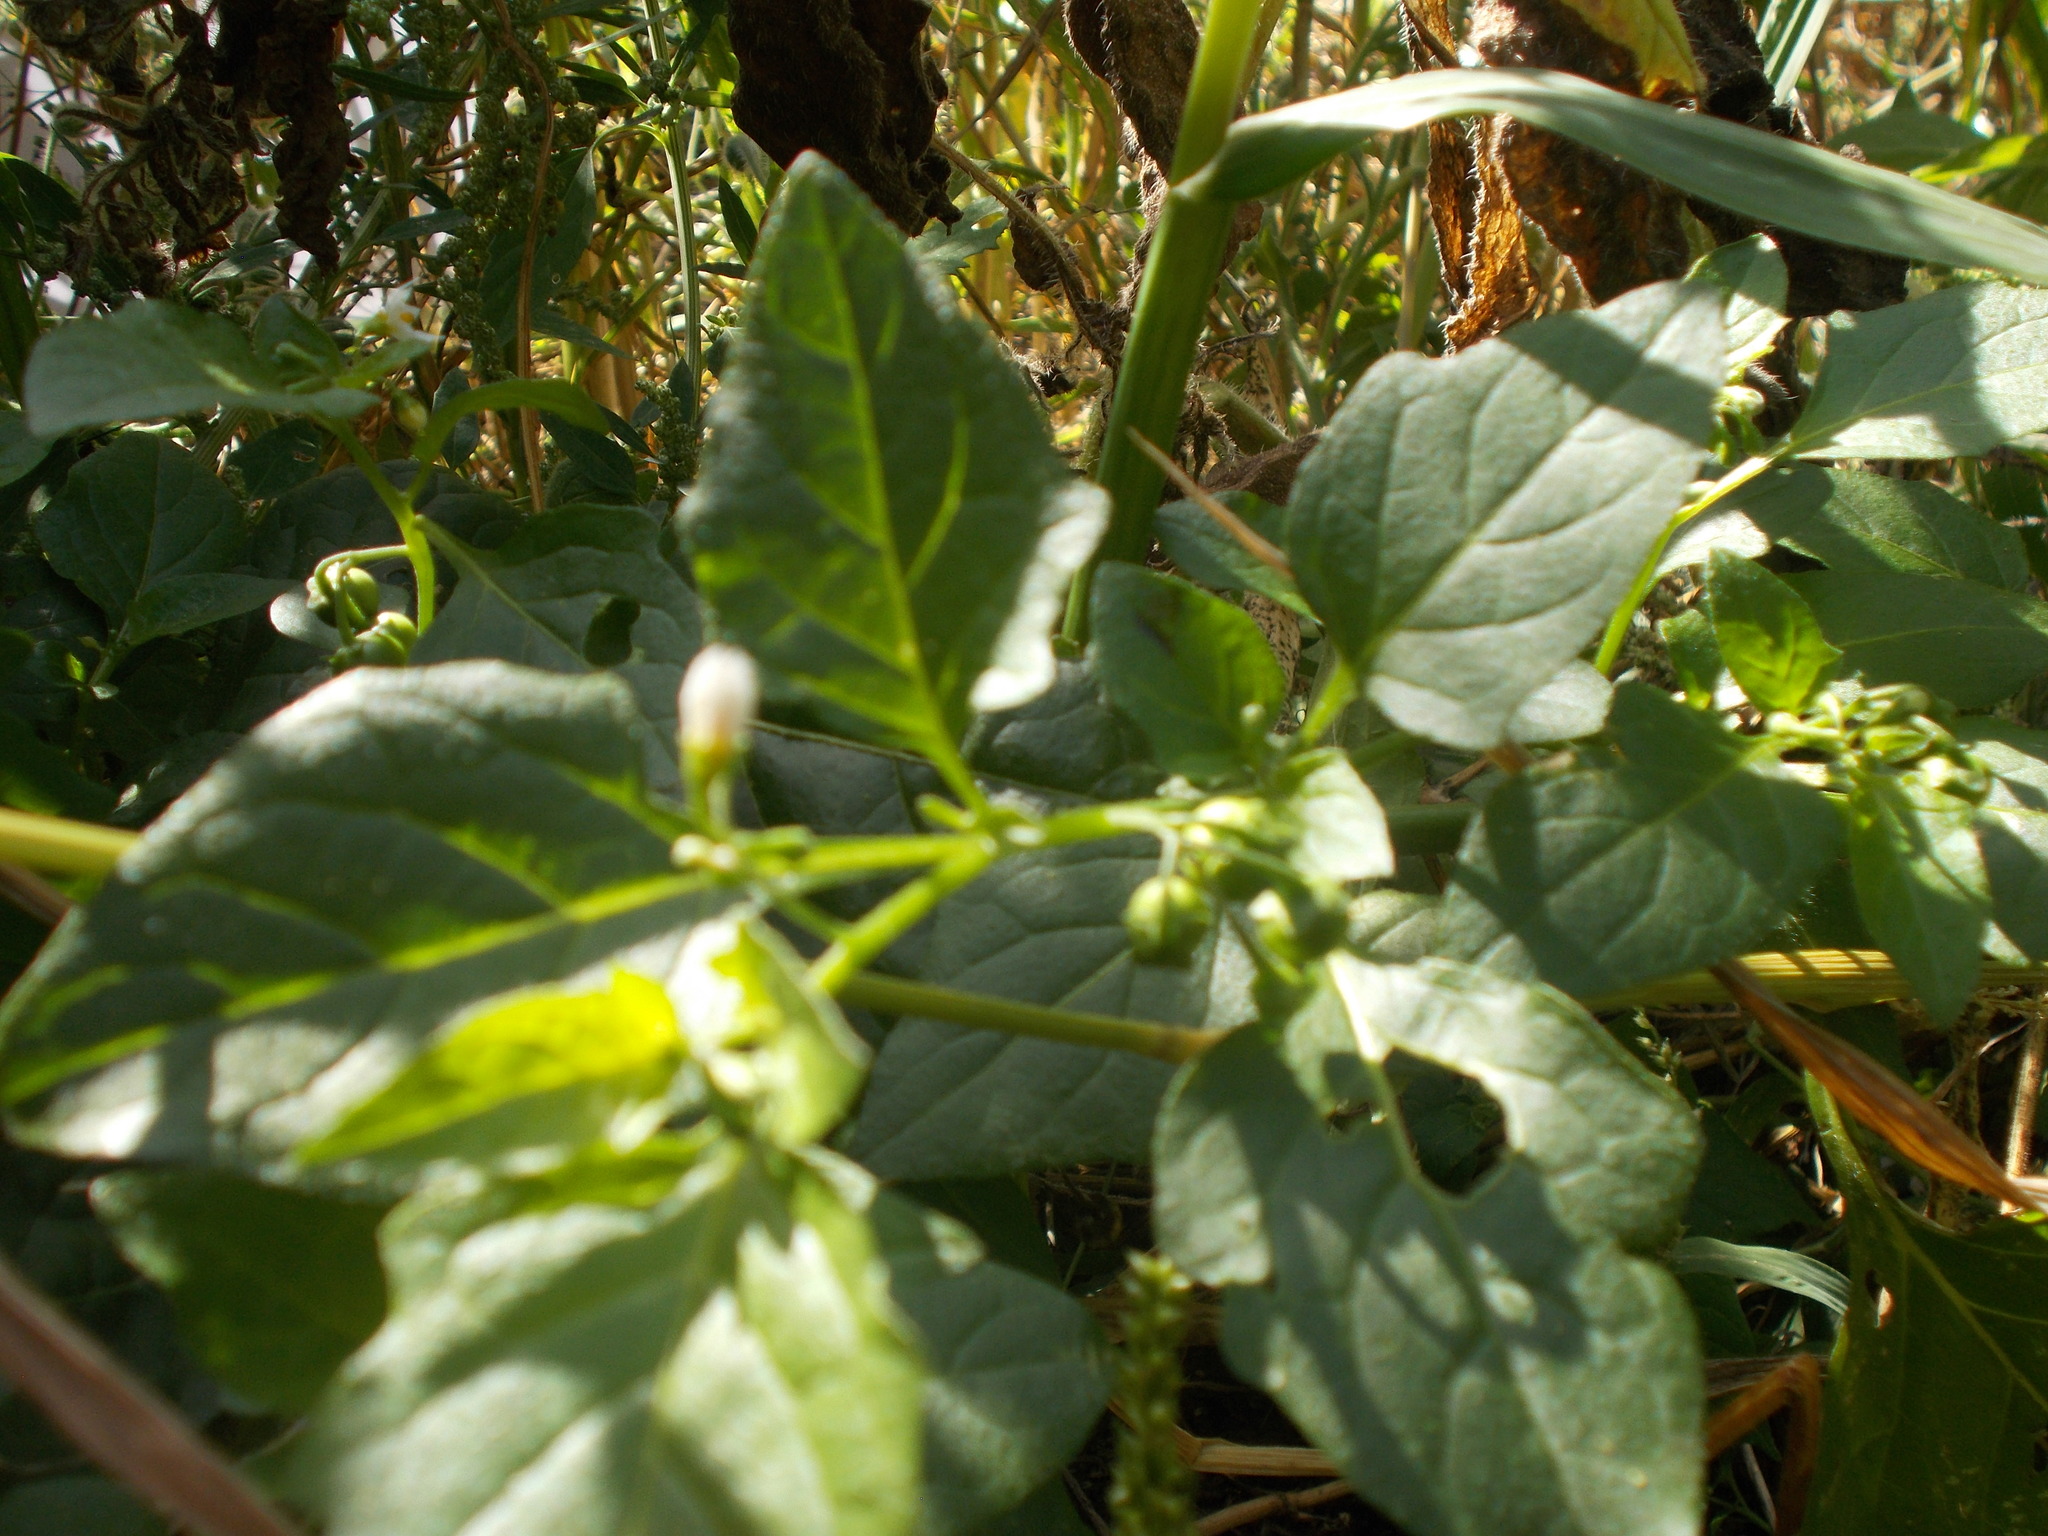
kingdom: Plantae
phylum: Tracheophyta
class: Magnoliopsida
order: Solanales
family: Solanaceae
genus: Solanum
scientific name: Solanum nigrum
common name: Black nightshade
